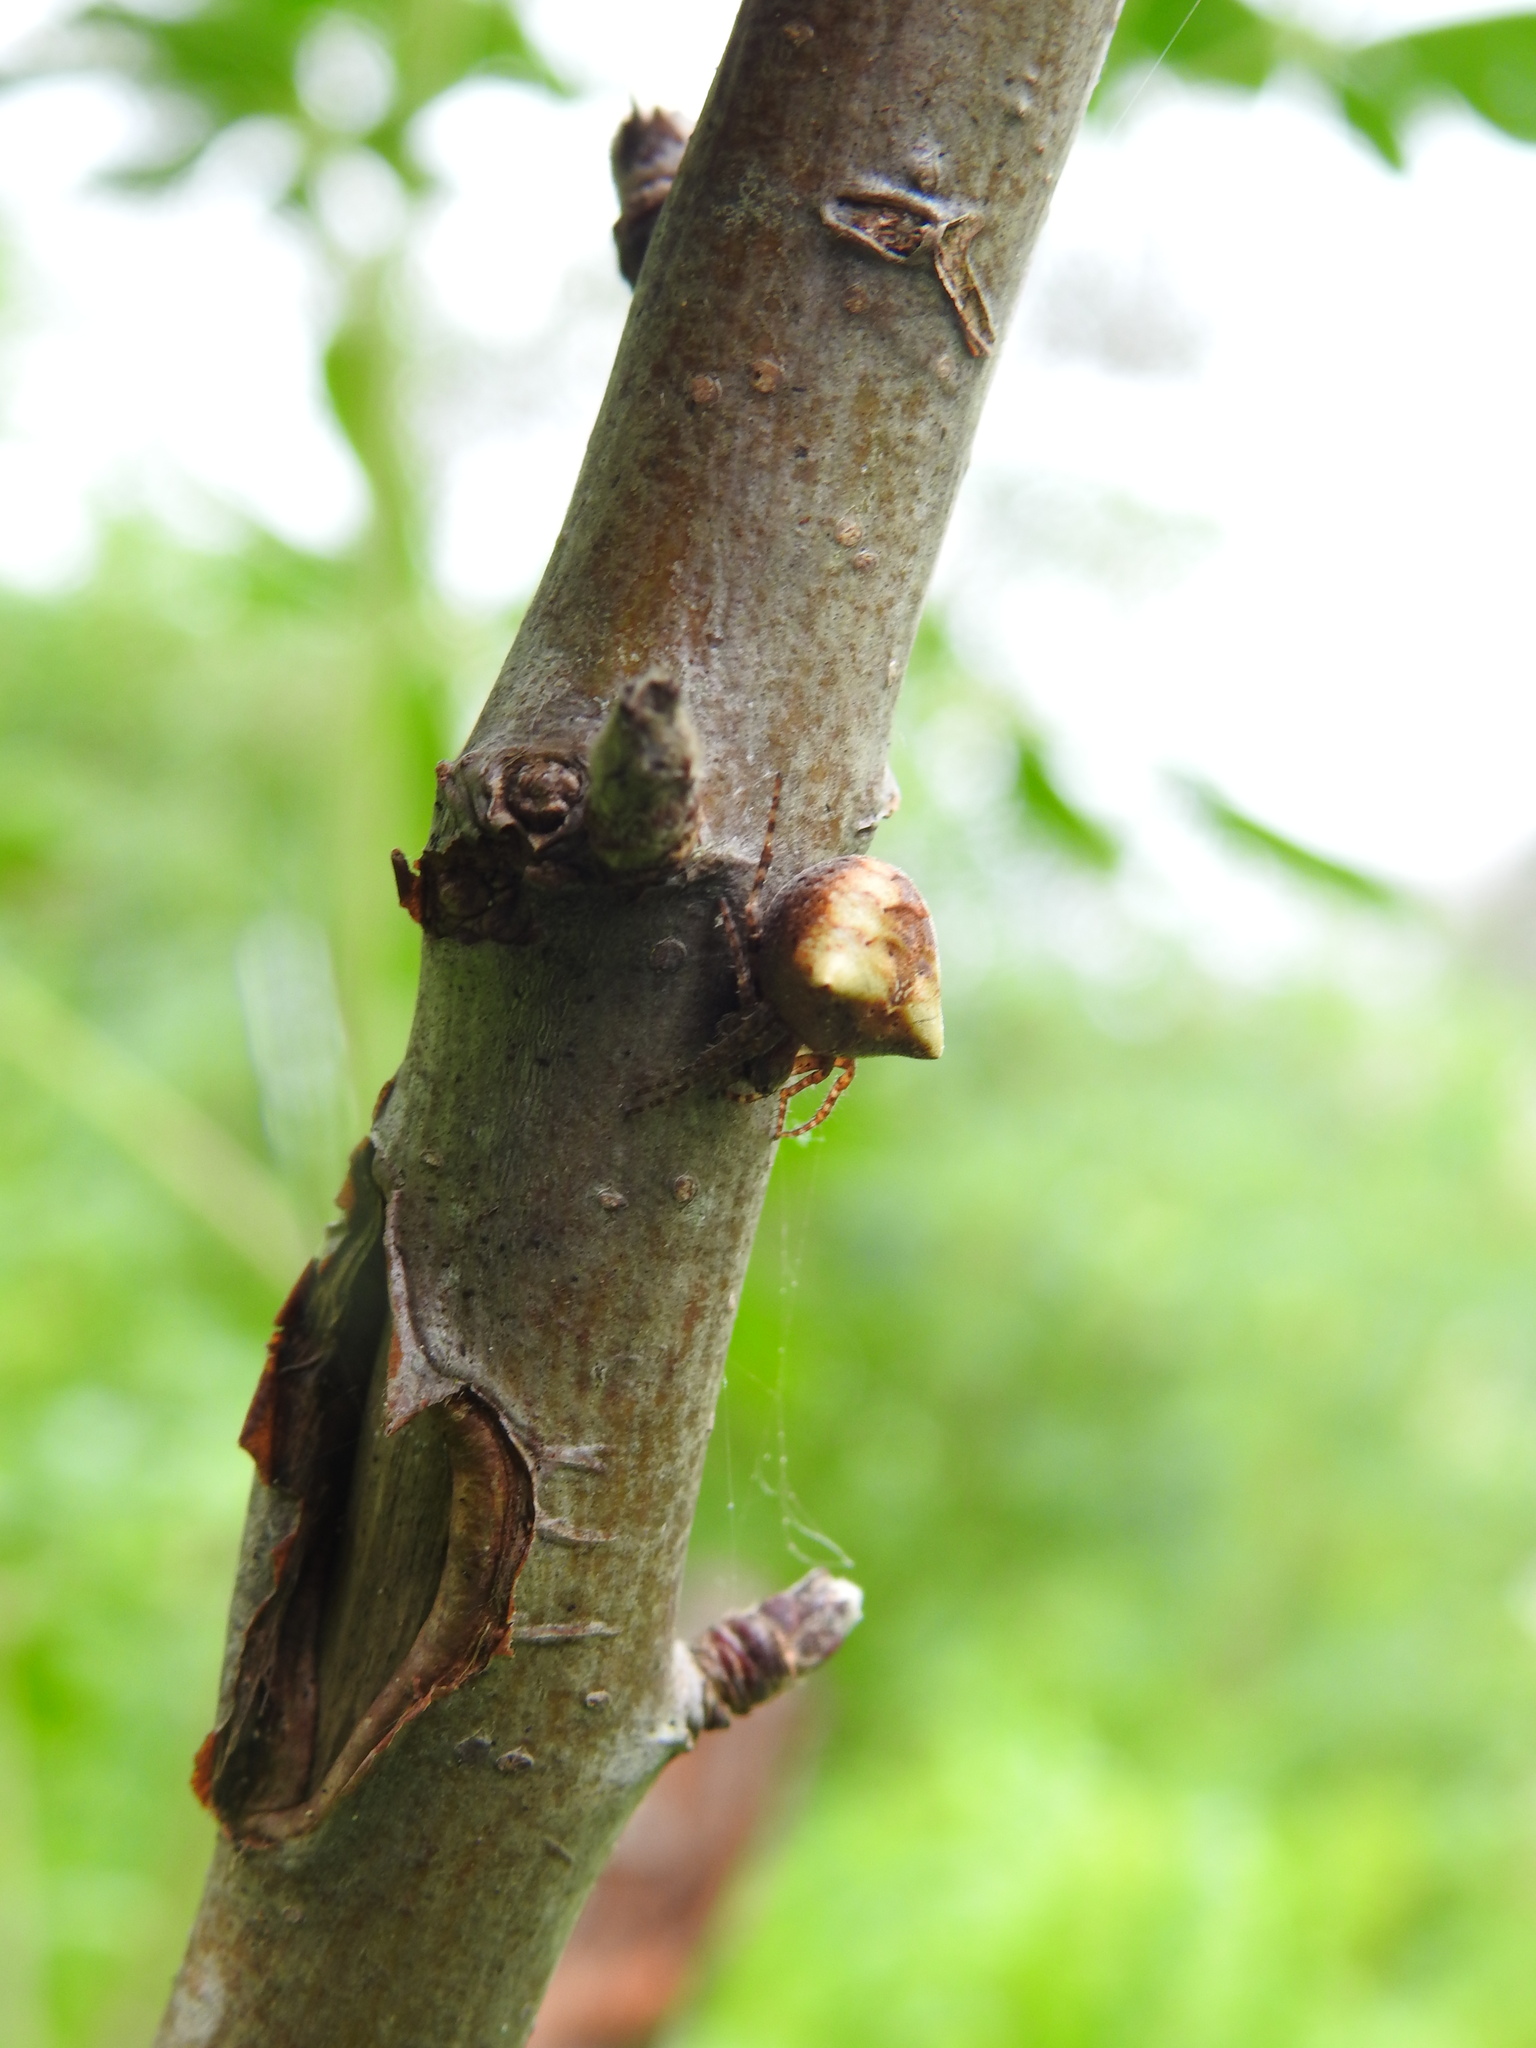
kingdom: Animalia
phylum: Arthropoda
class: Arachnida
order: Araneae
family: Araneidae
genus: Gibbaranea
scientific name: Gibbaranea bituberculata
